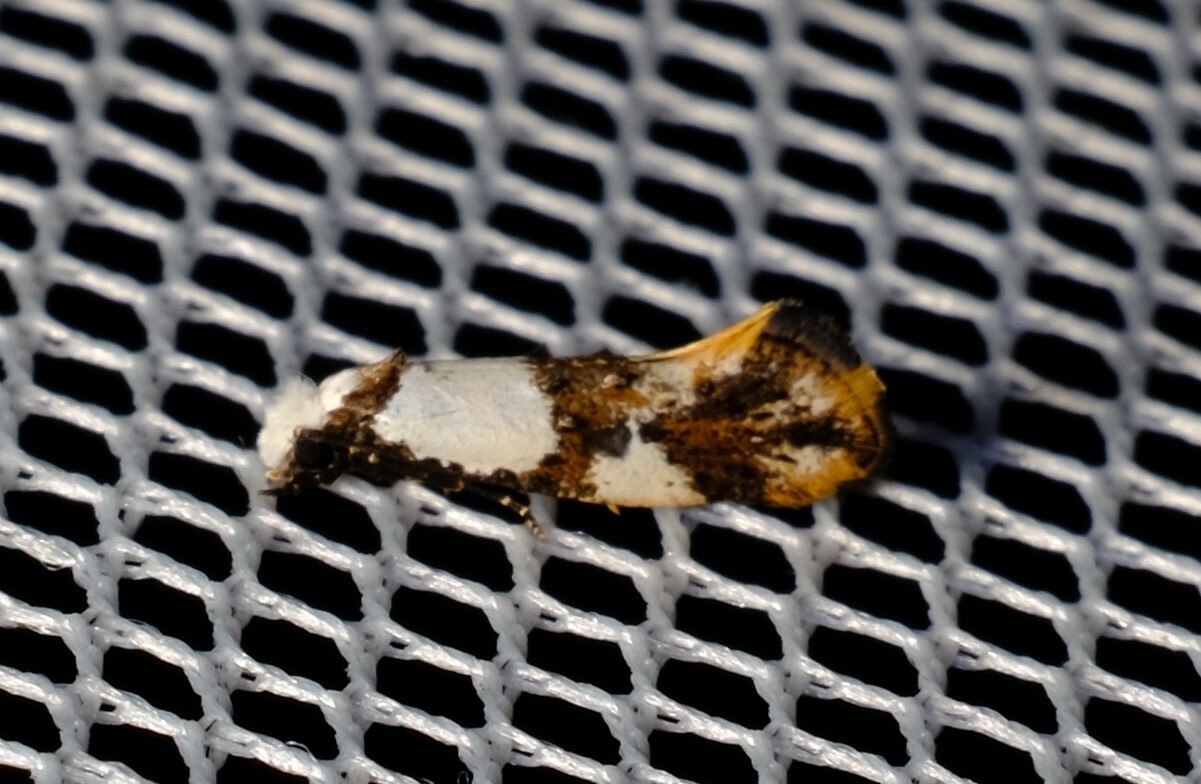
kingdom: Animalia
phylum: Arthropoda
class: Insecta
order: Lepidoptera
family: Tineidae
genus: Monopis
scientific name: Monopis meliorella
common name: Blotched monopis moth
